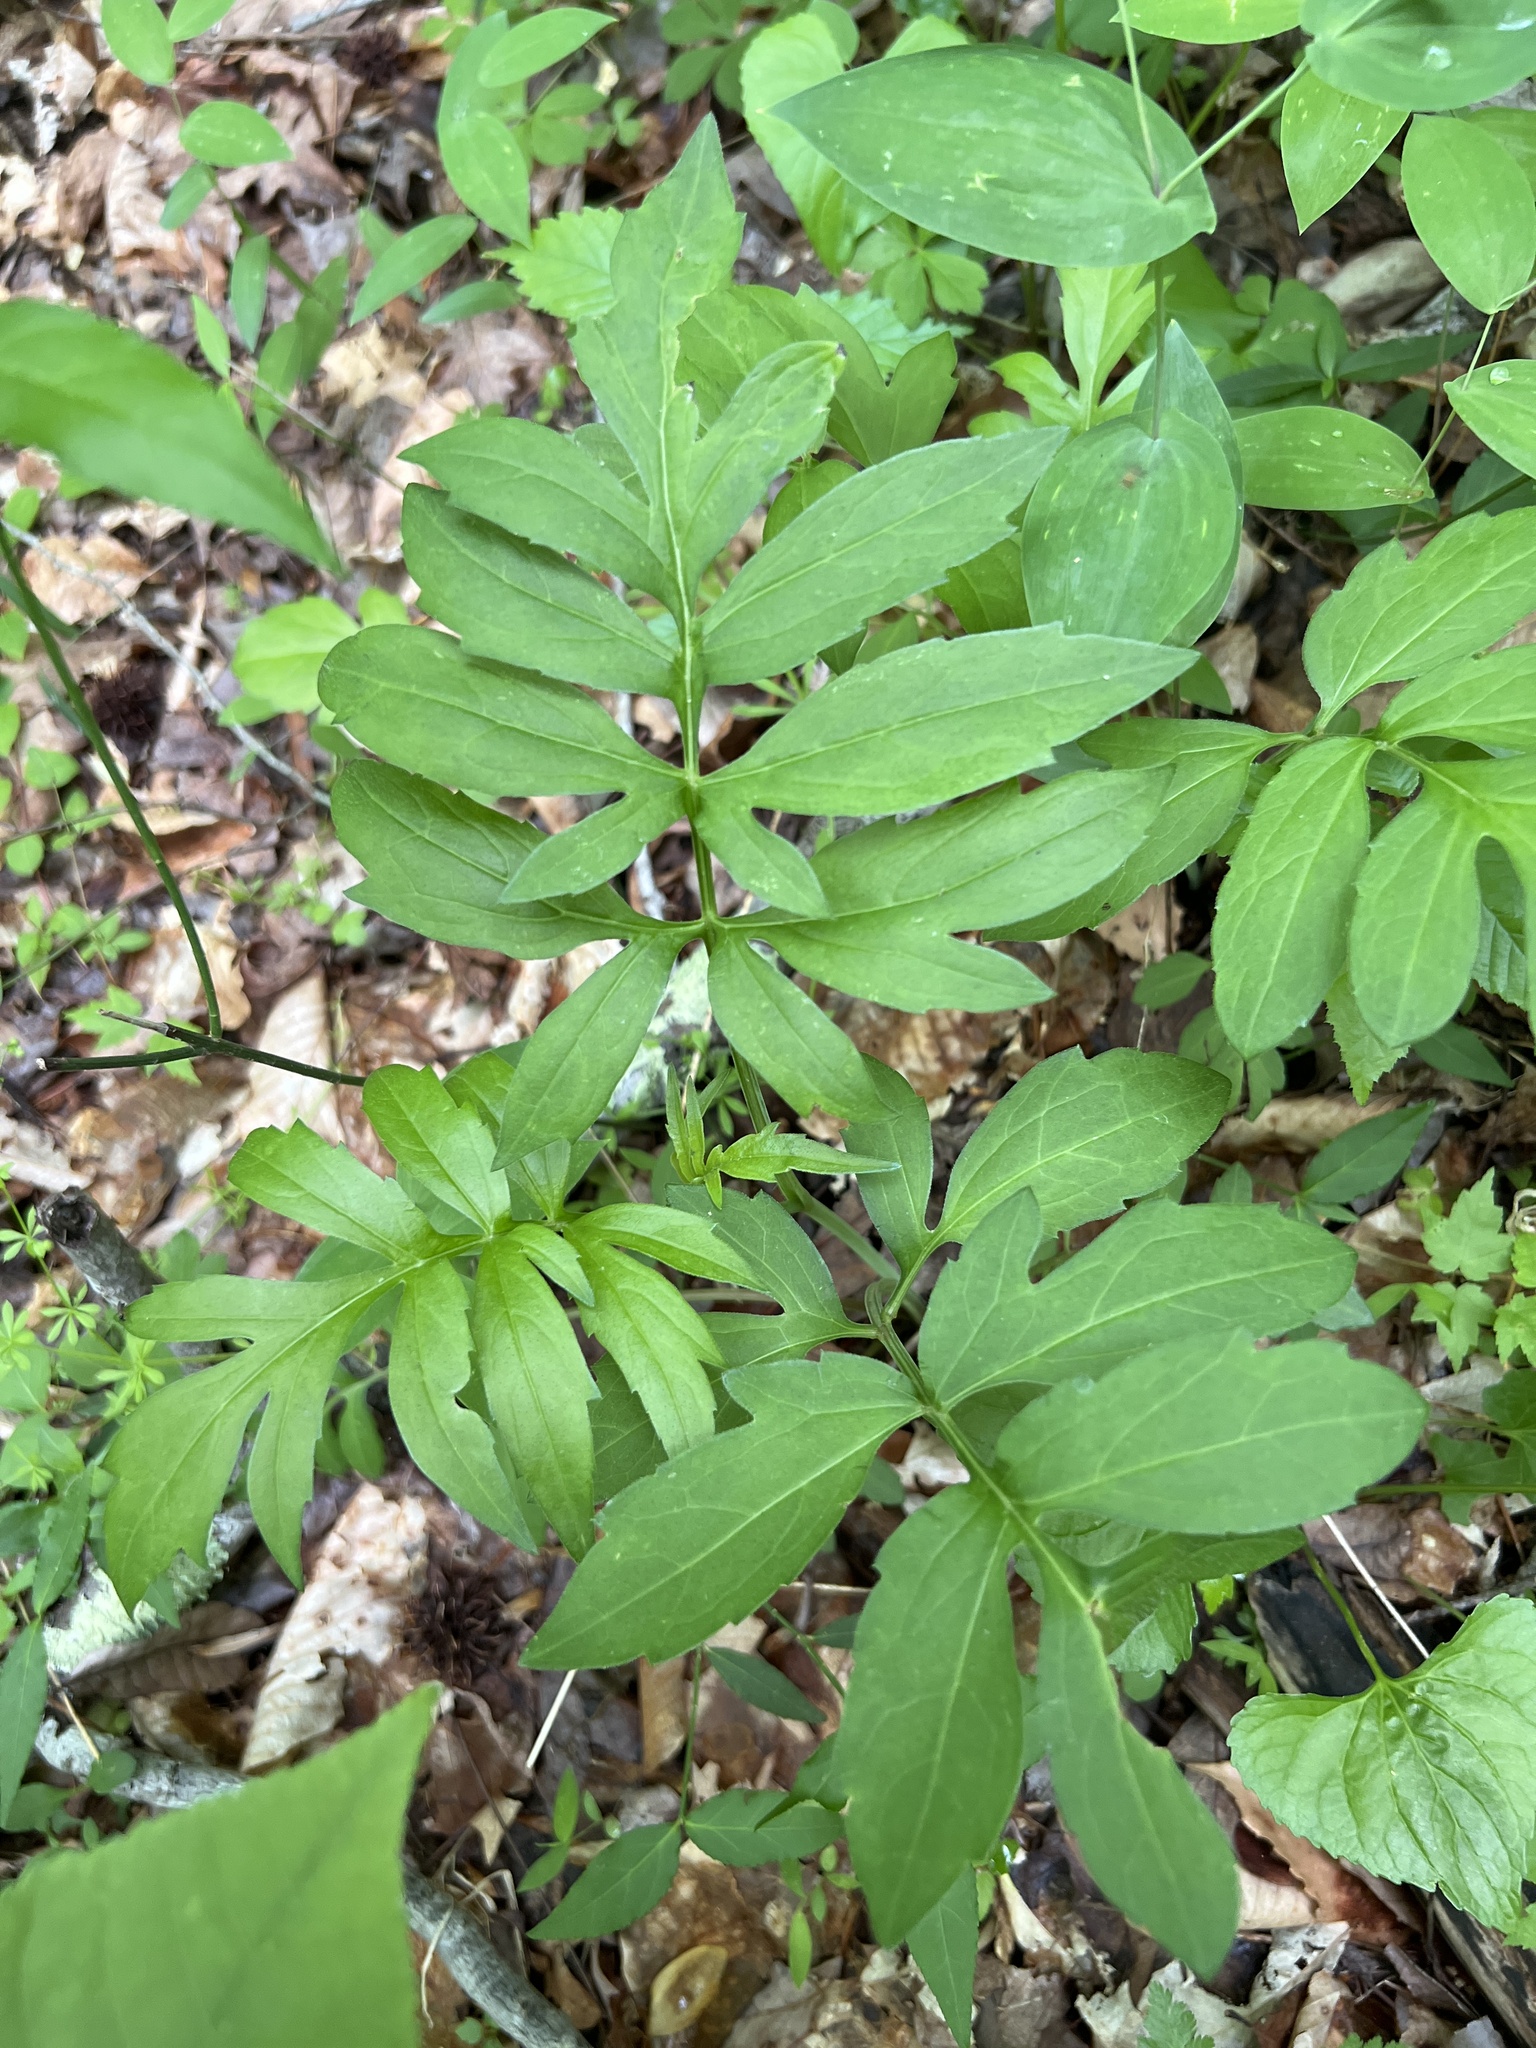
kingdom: Plantae
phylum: Tracheophyta
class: Magnoliopsida
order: Asterales
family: Asteraceae
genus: Rudbeckia
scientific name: Rudbeckia laciniata
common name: Coneflower
